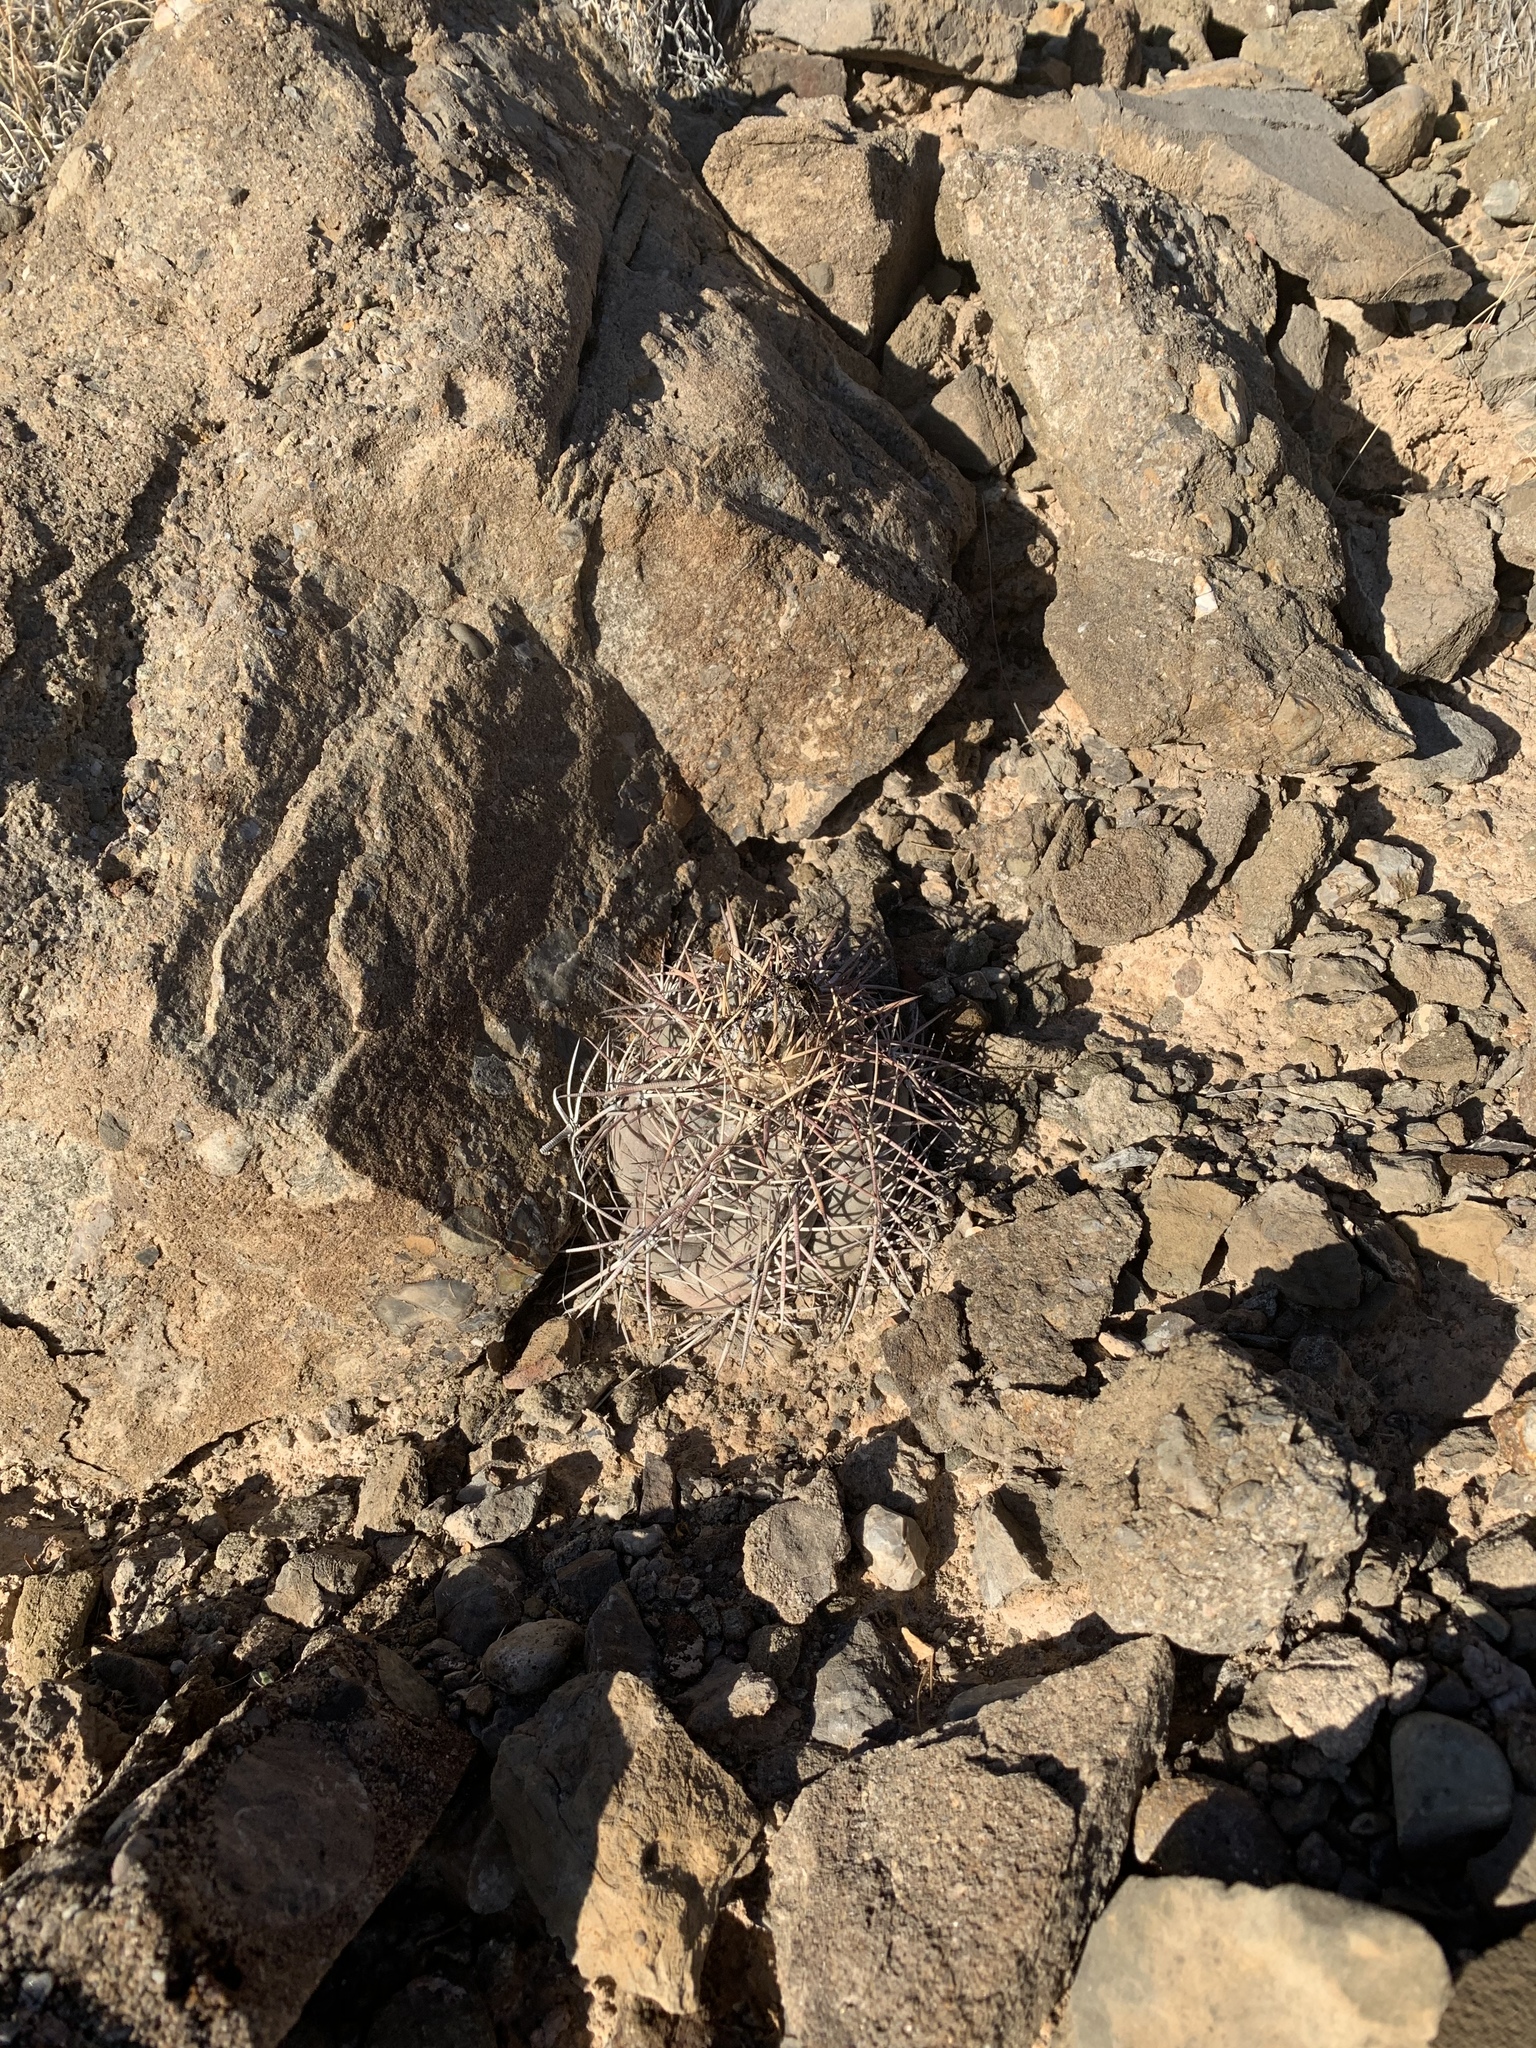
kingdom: Plantae
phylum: Tracheophyta
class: Magnoliopsida
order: Caryophyllales
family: Cactaceae
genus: Echinocactus
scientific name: Echinocactus horizonthalonius
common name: Devilshead
